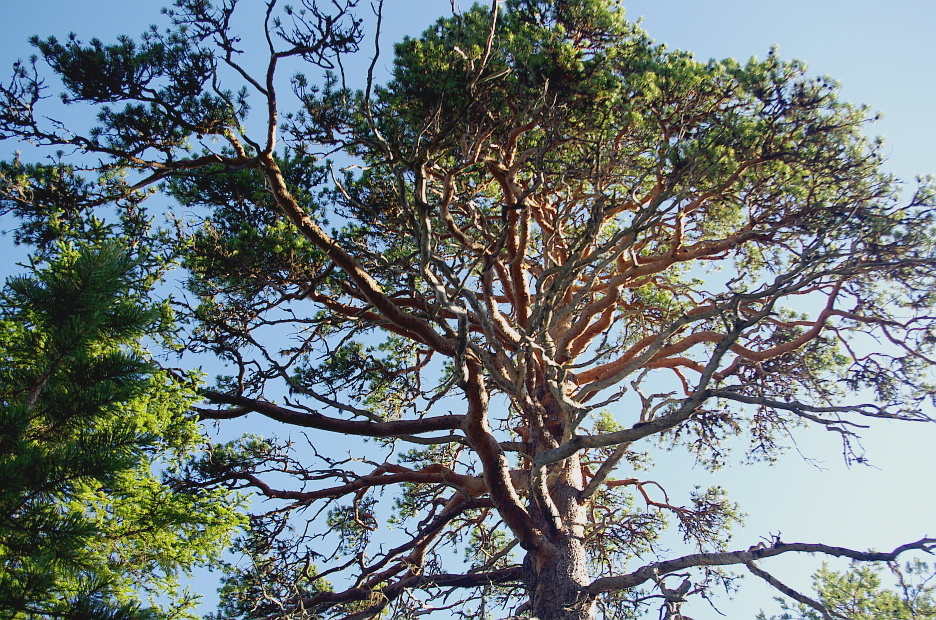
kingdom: Plantae
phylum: Tracheophyta
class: Pinopsida
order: Pinales
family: Pinaceae
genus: Pinus
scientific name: Pinus sylvestris
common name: Scots pine
